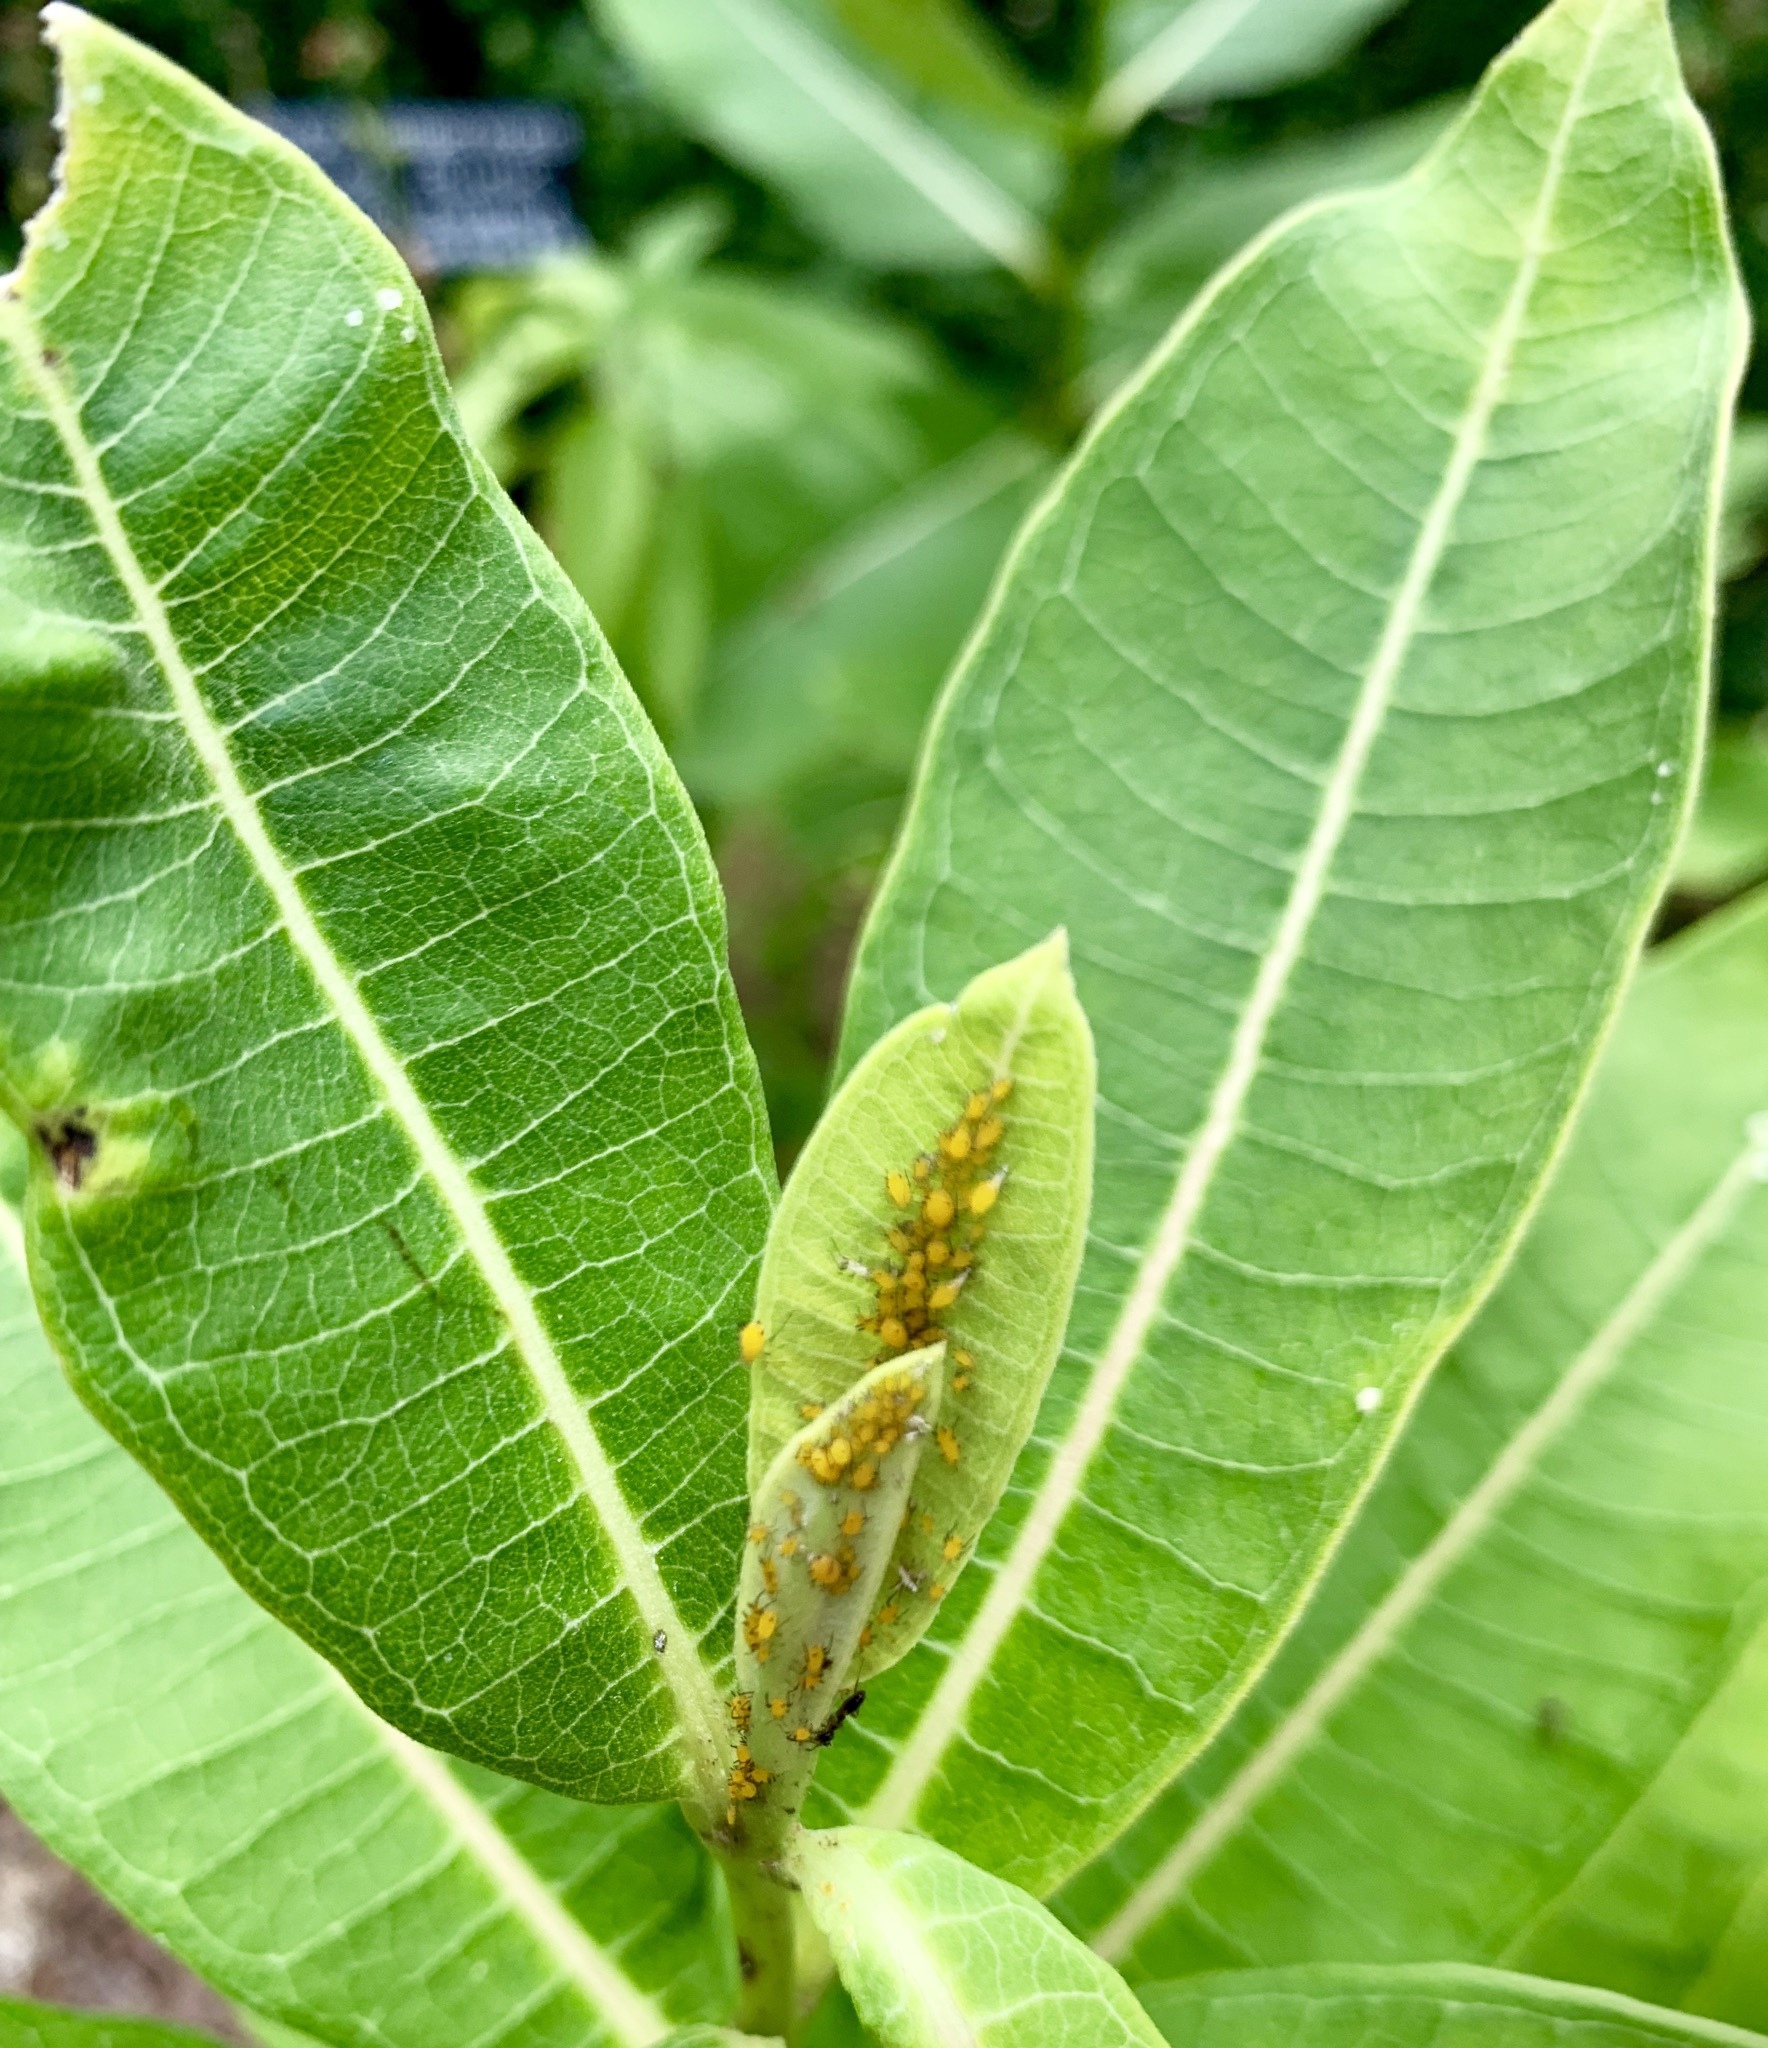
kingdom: Animalia
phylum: Arthropoda
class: Insecta
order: Hemiptera
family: Aphididae
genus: Aphis
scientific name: Aphis nerii
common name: Oleander aphid
